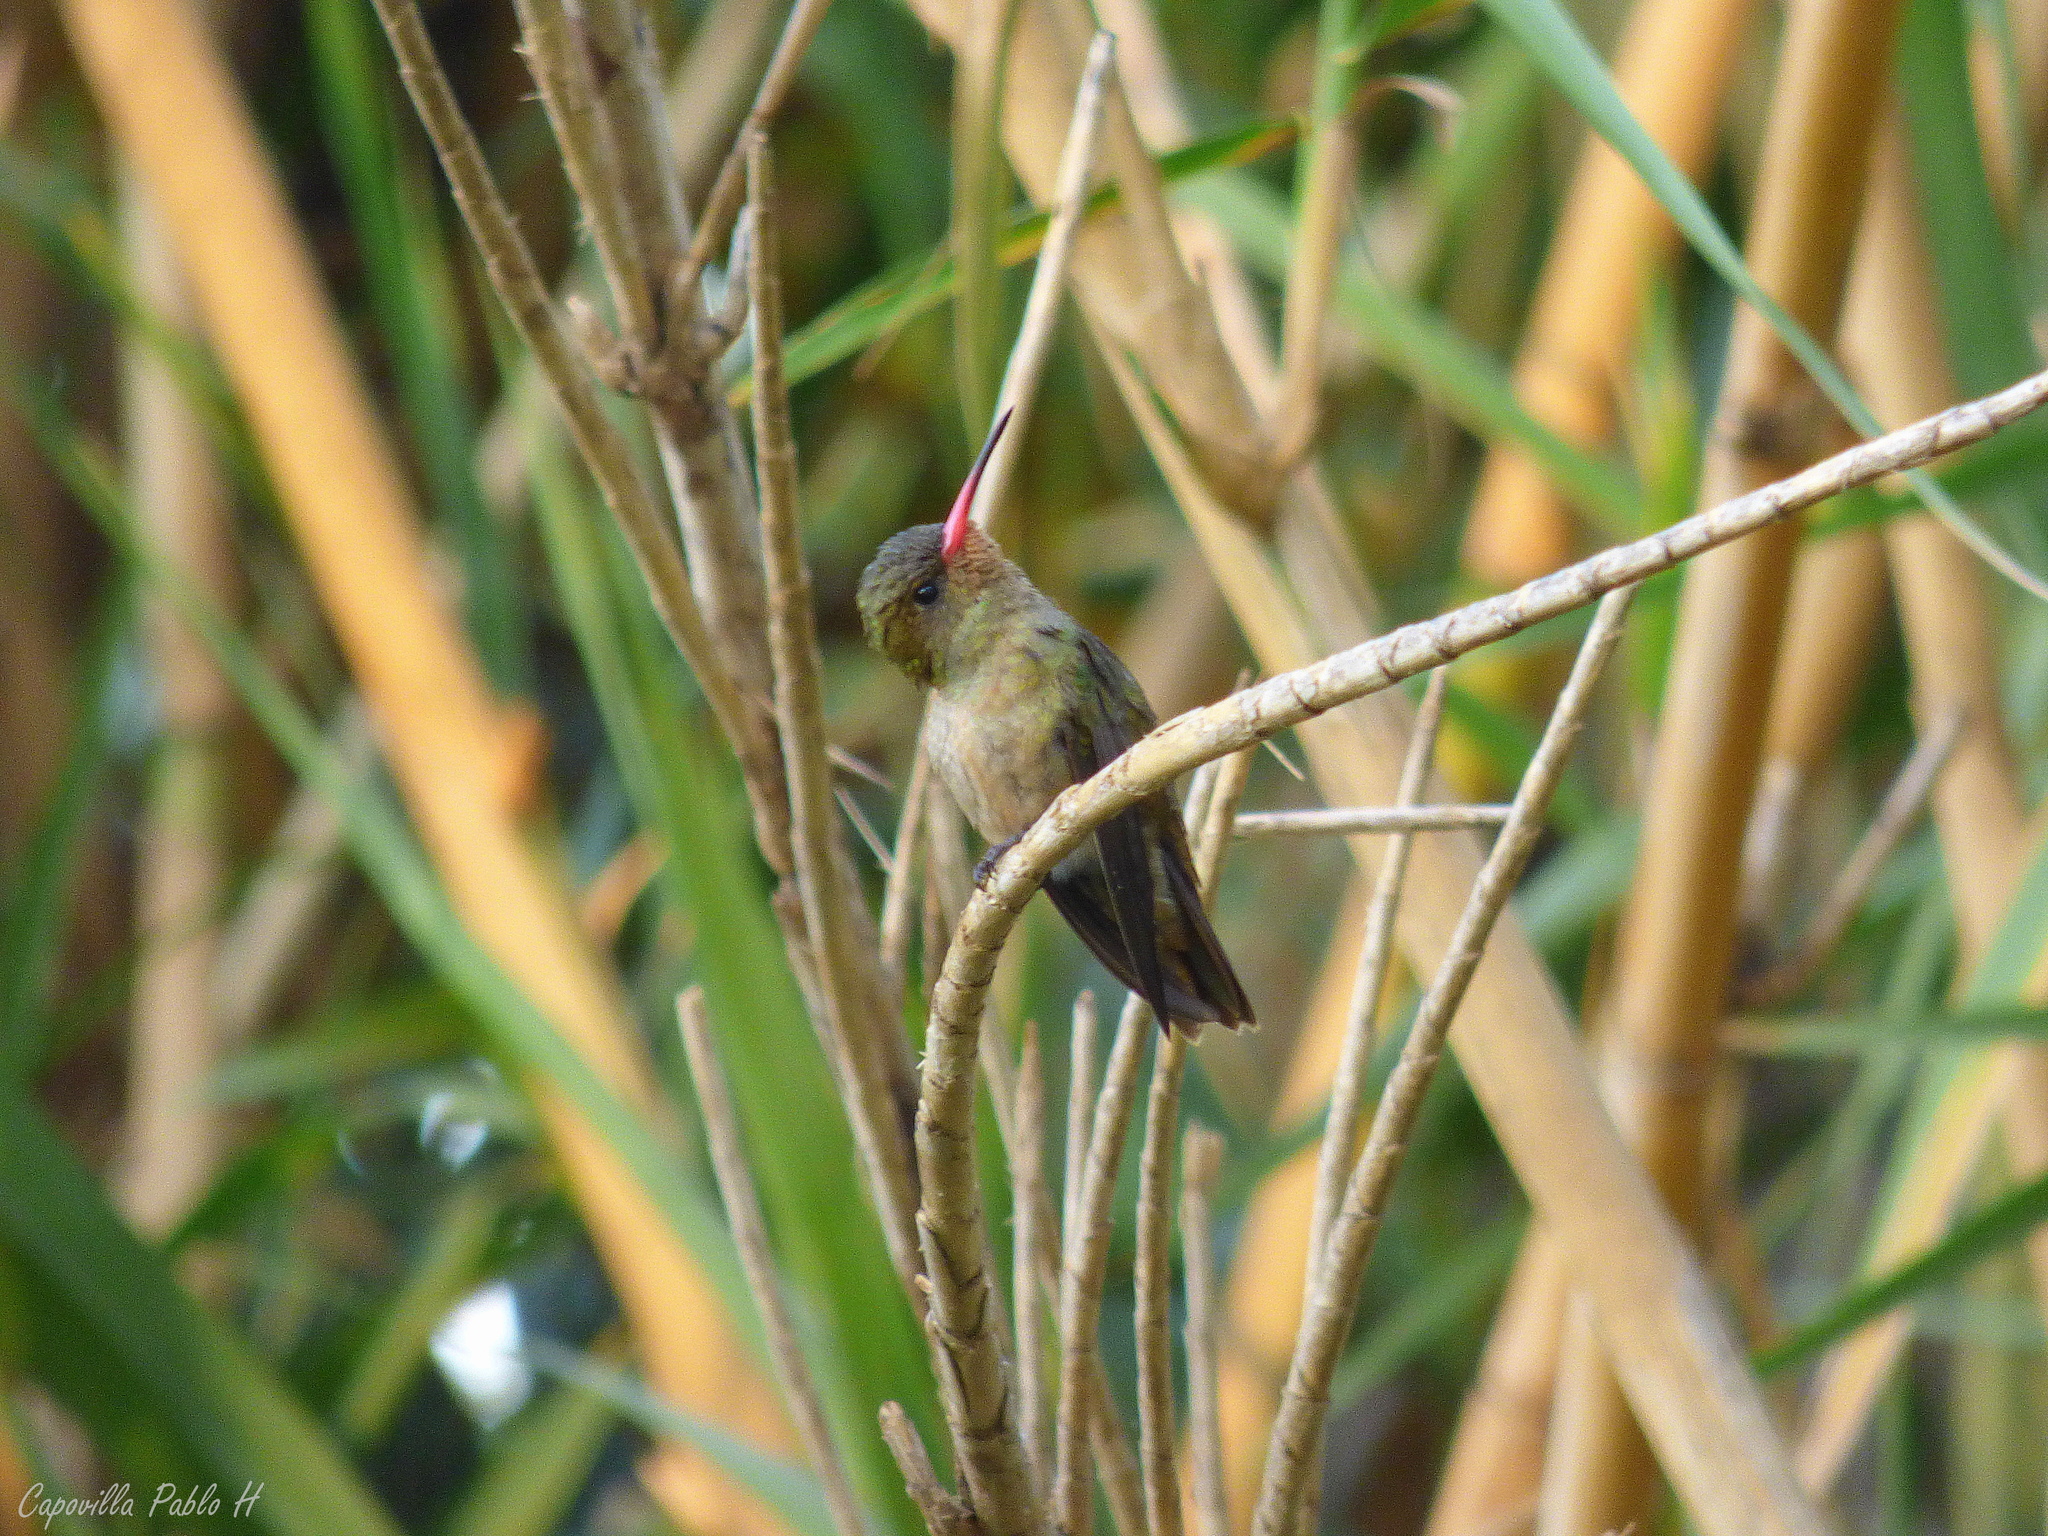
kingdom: Animalia
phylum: Chordata
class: Aves
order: Apodiformes
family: Trochilidae
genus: Hylocharis
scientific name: Hylocharis chrysura
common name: Gilded sapphire
